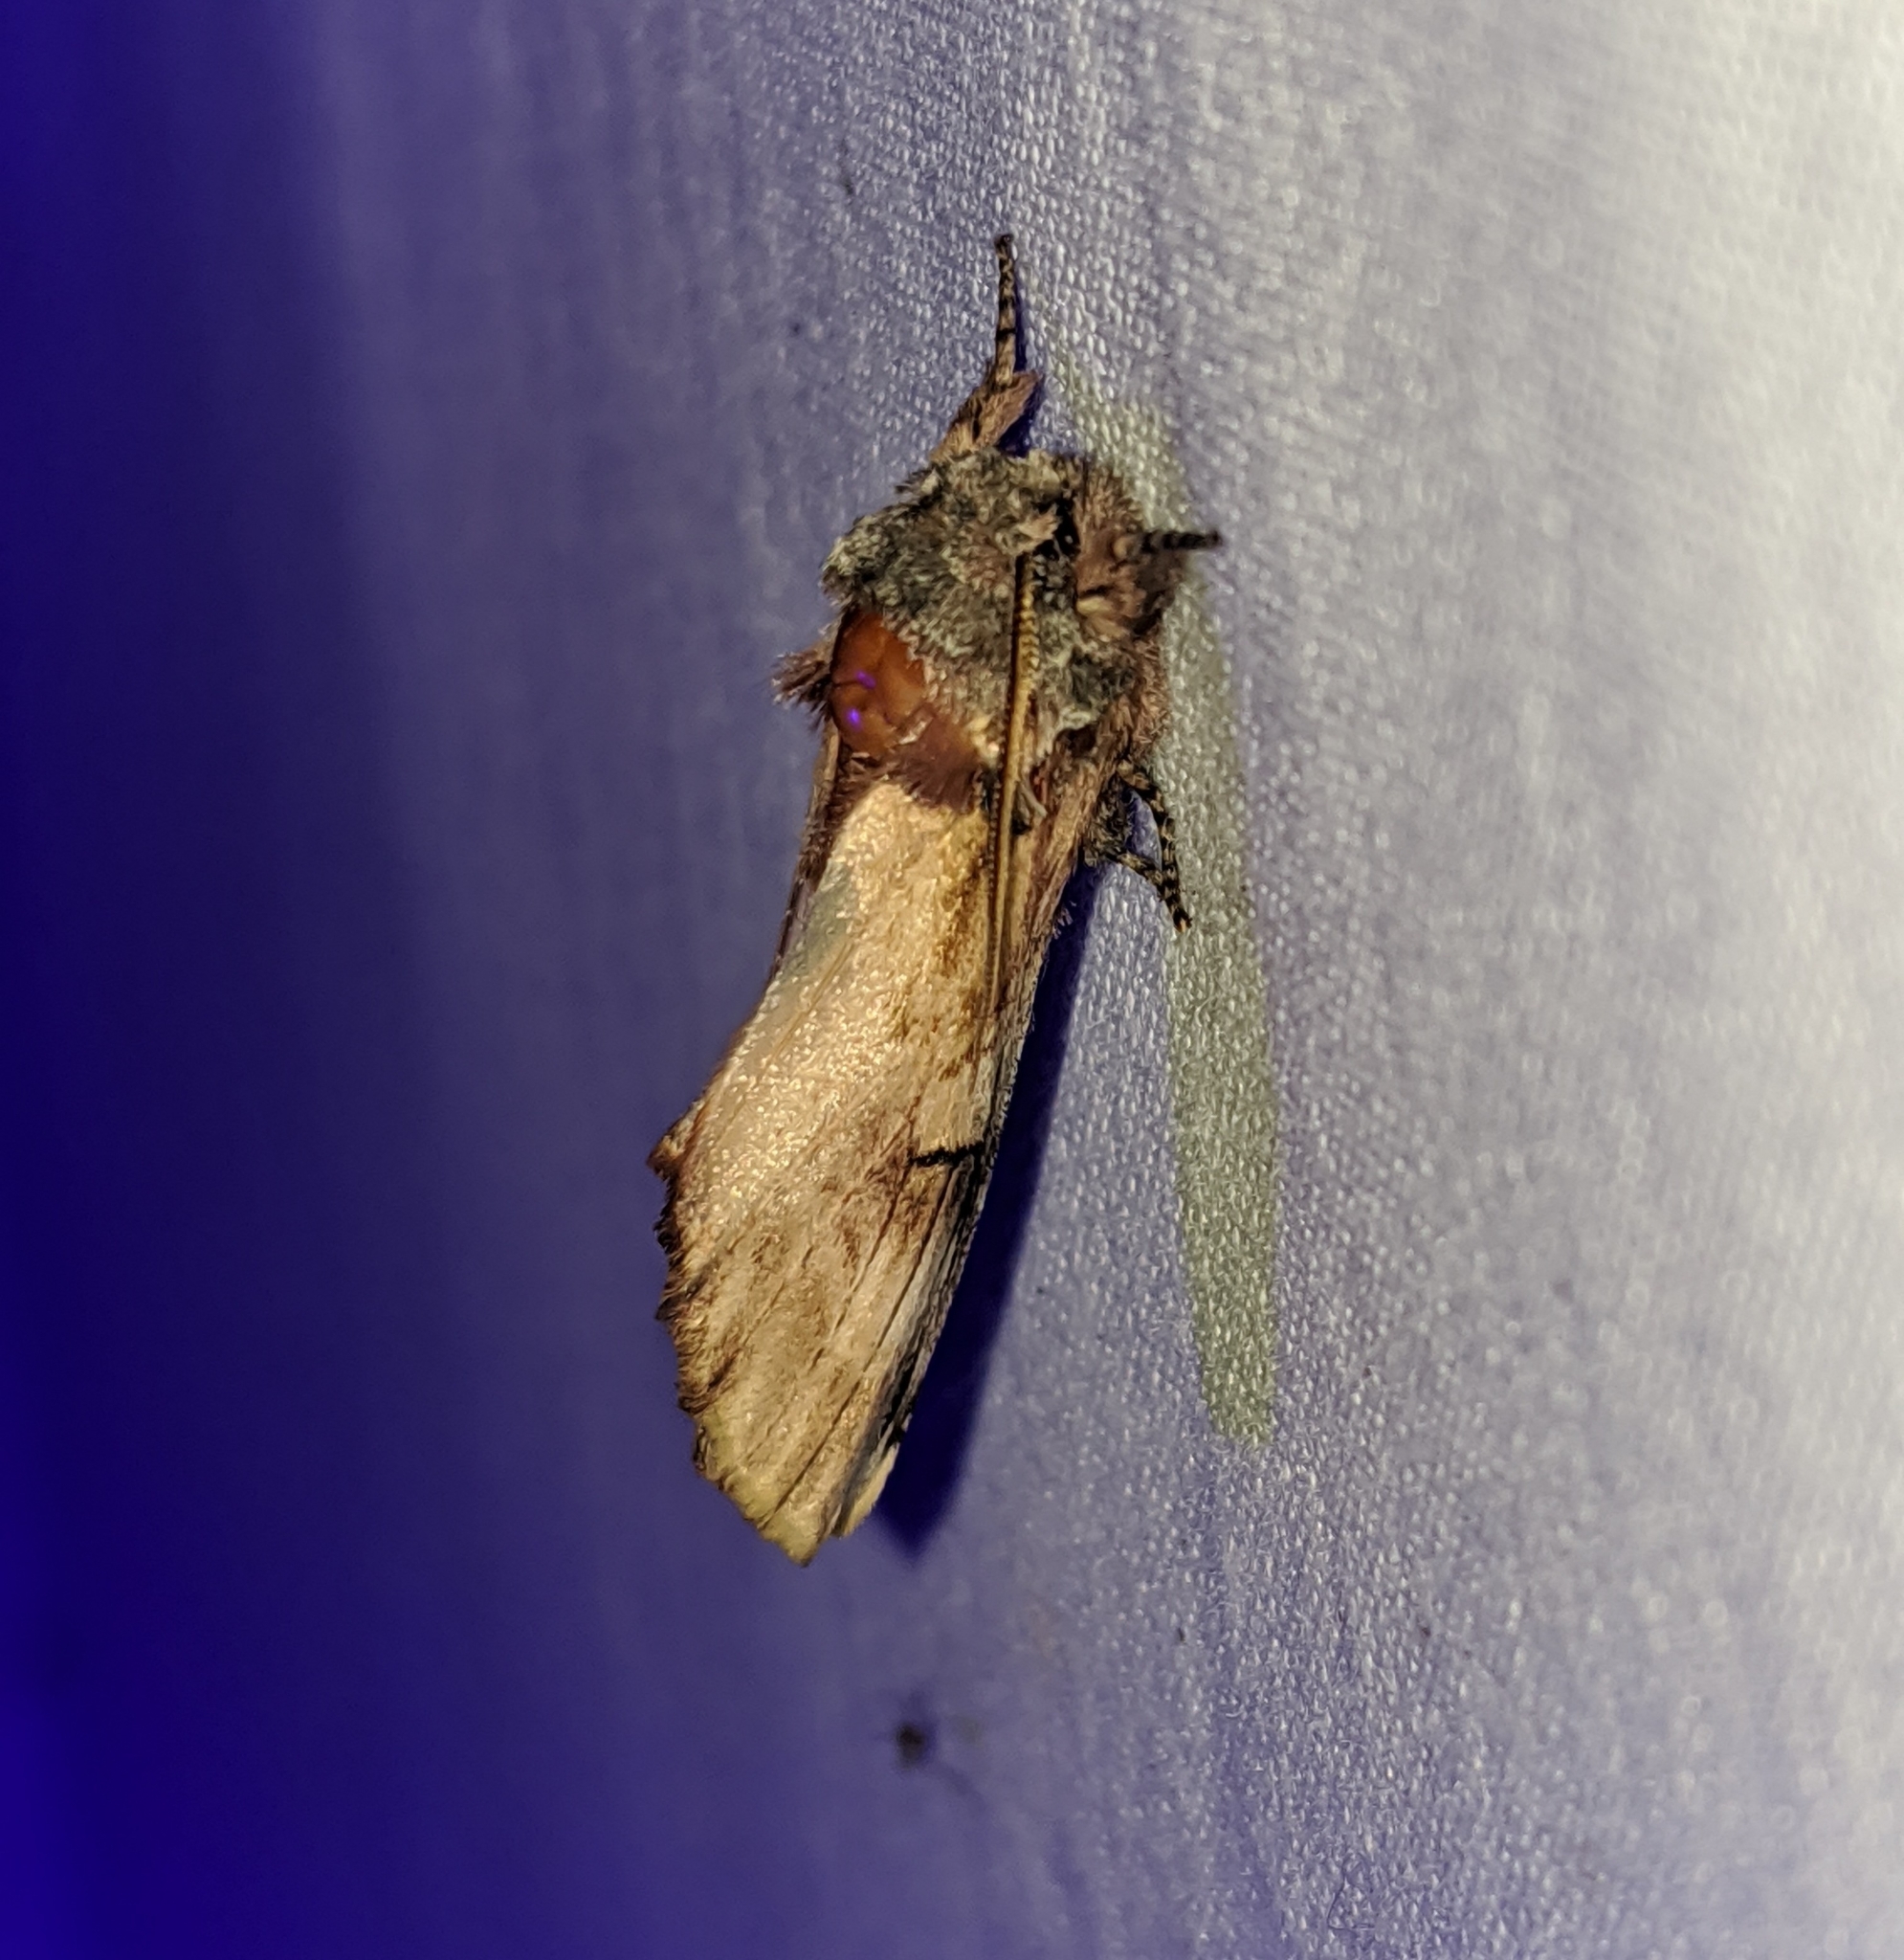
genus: Ianassa
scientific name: Ianassa
